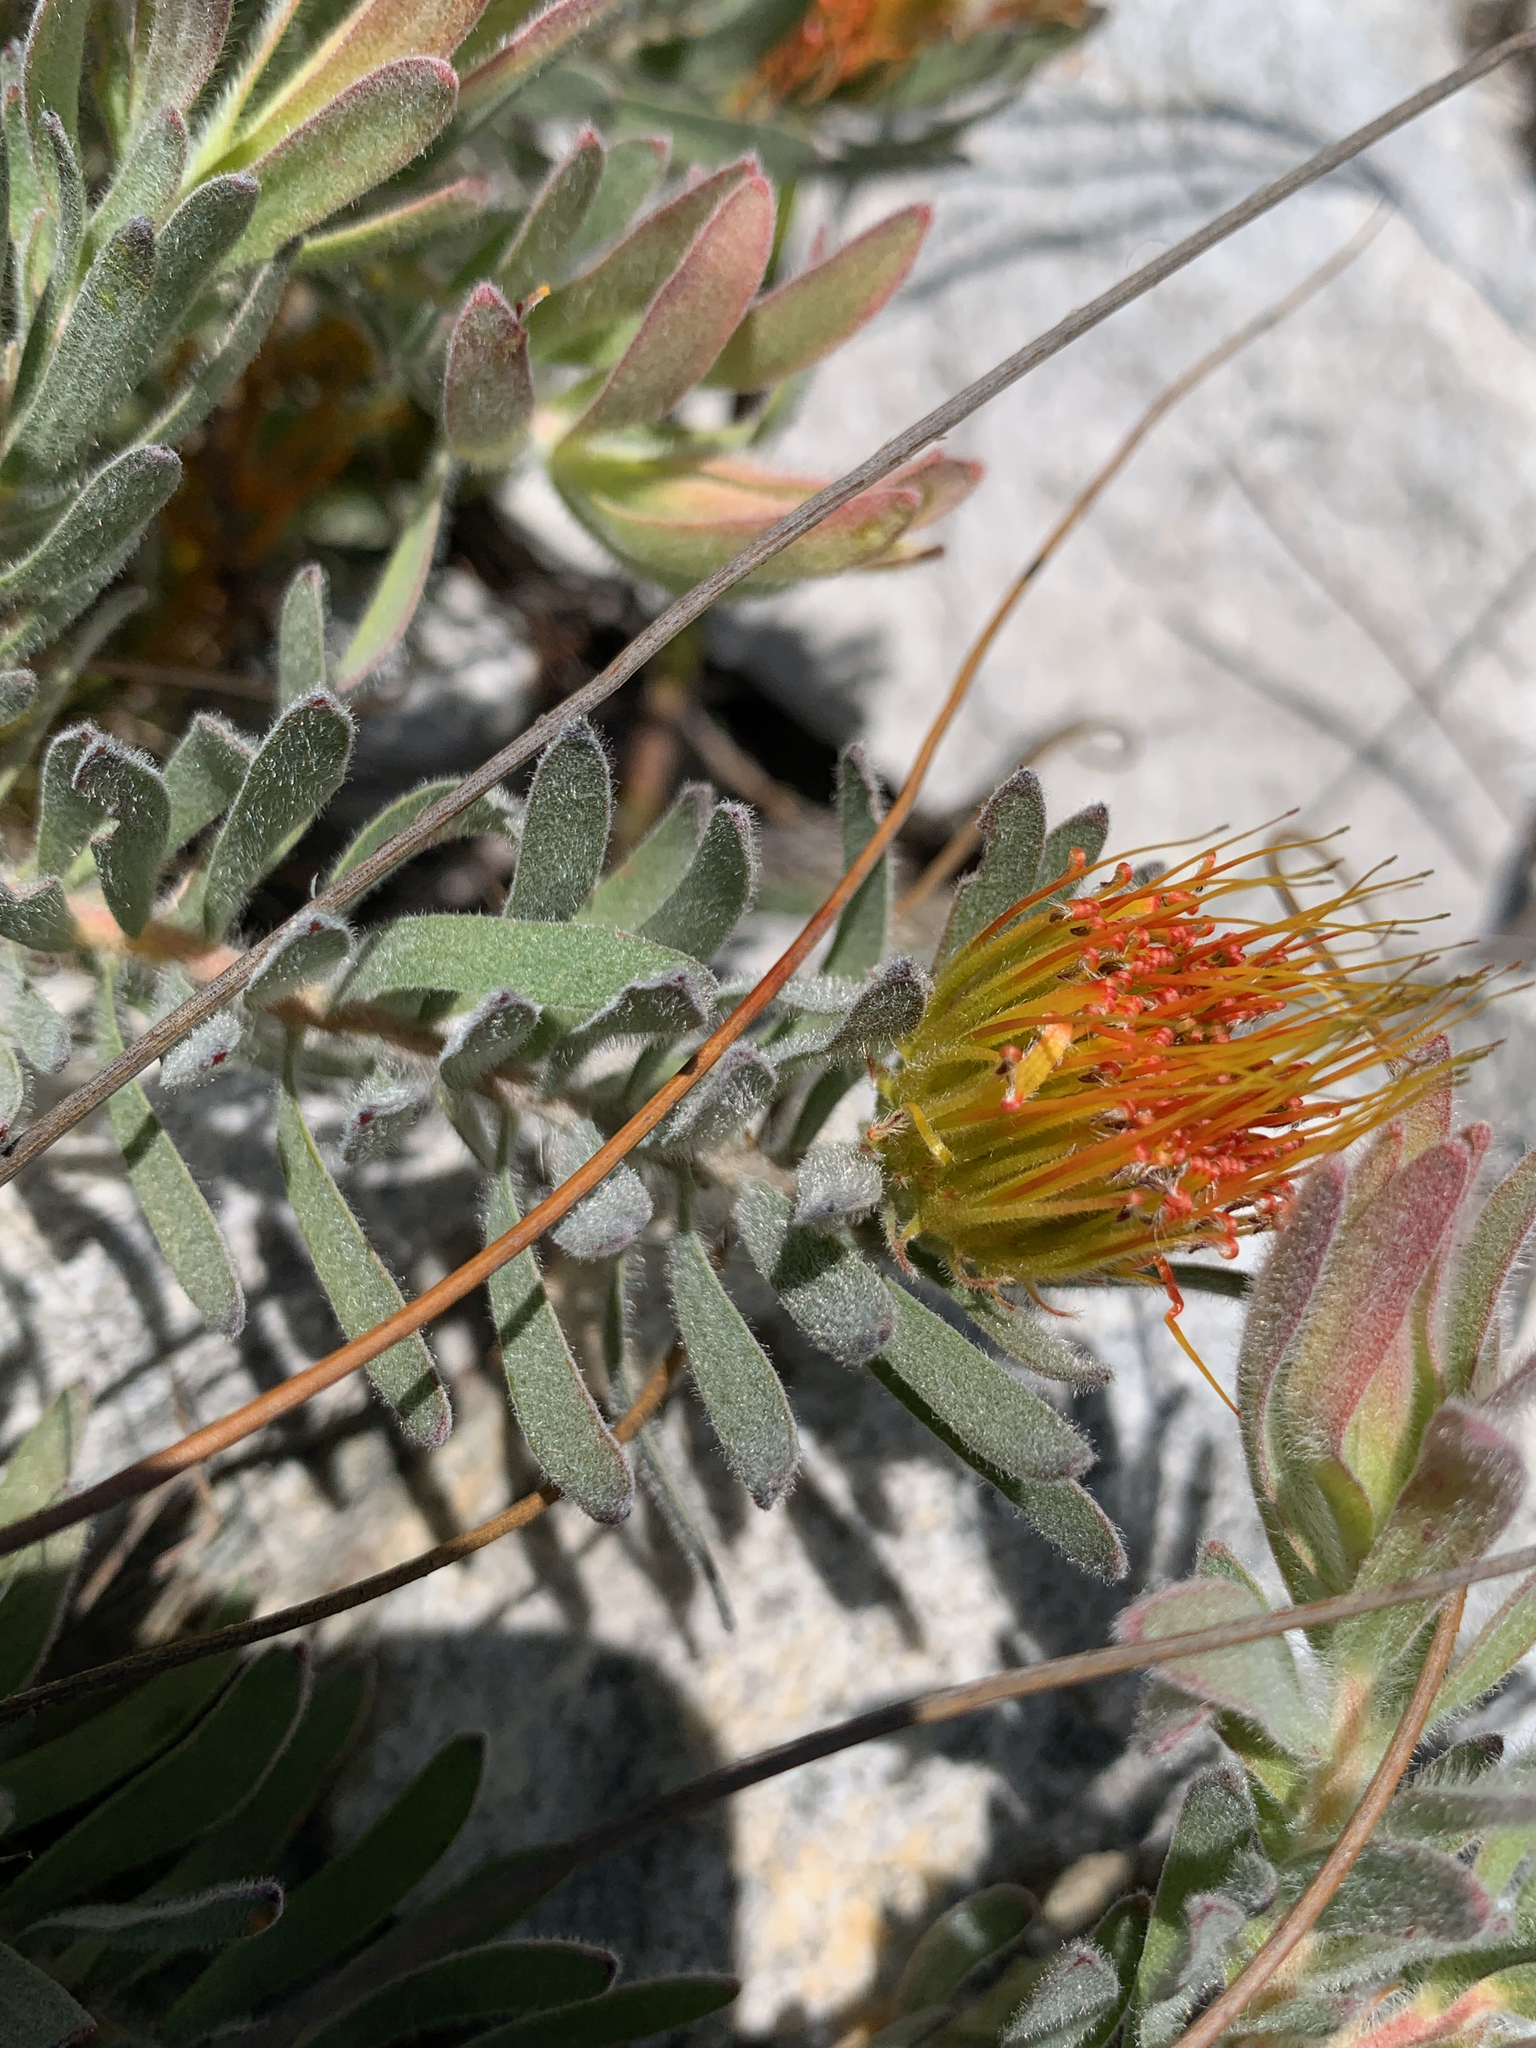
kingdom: Plantae
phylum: Tracheophyta
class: Magnoliopsida
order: Proteales
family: Proteaceae
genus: Leucospermum
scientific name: Leucospermum gracile
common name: Hermanus pincushion
